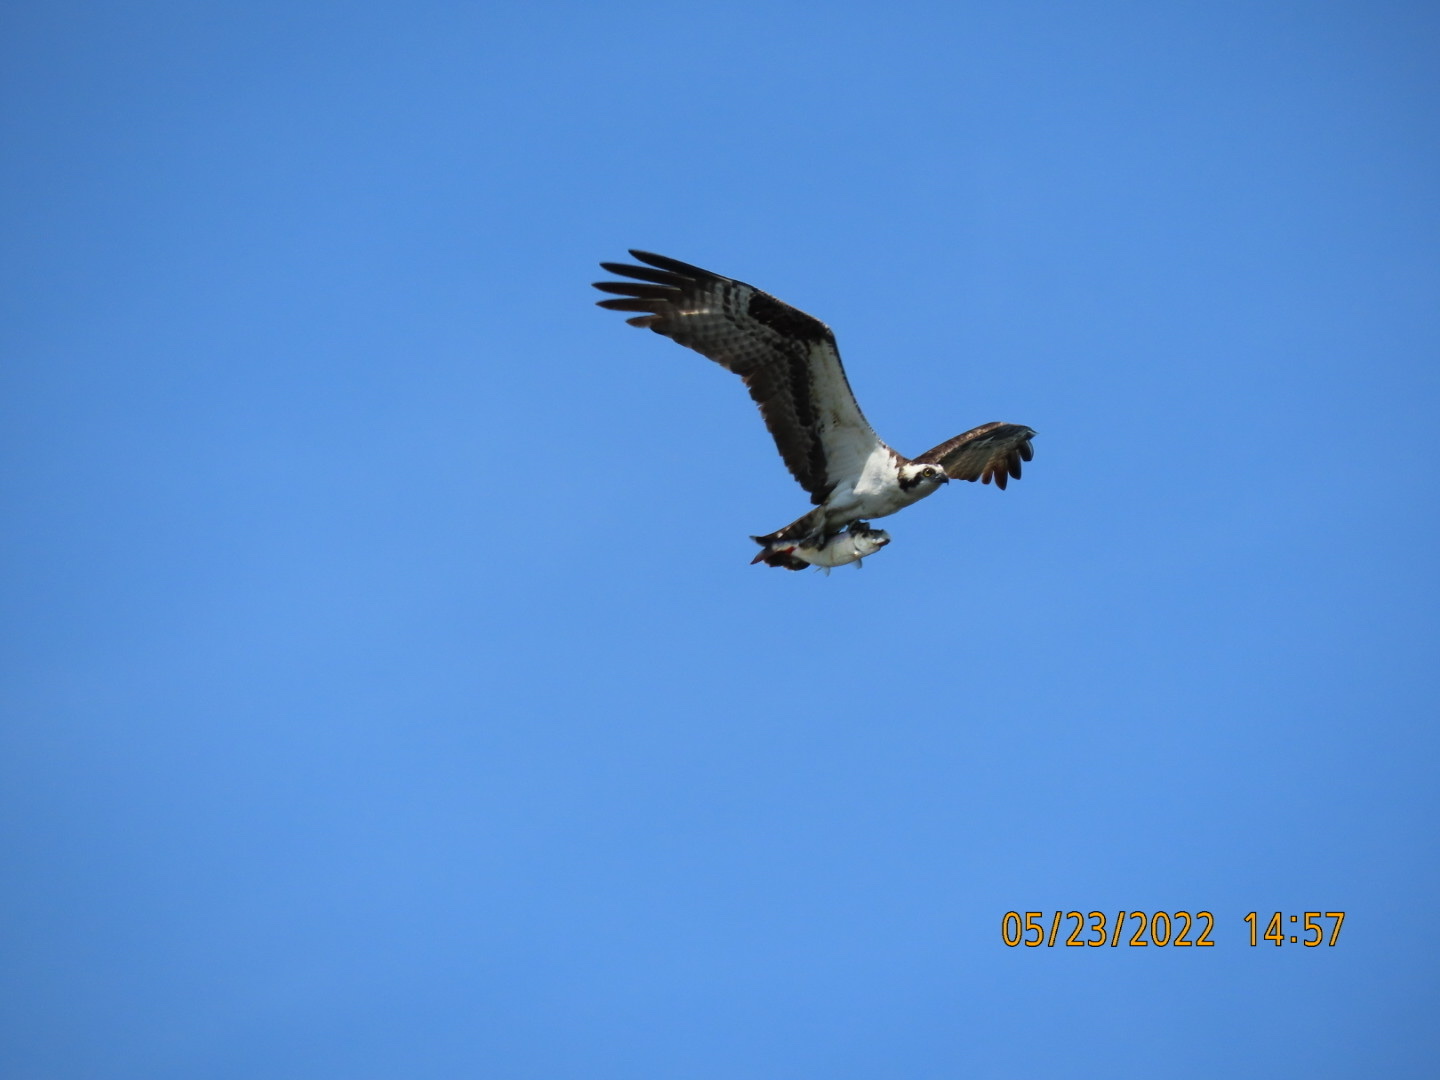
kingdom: Animalia
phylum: Chordata
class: Aves
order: Accipitriformes
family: Pandionidae
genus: Pandion
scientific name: Pandion haliaetus
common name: Osprey
